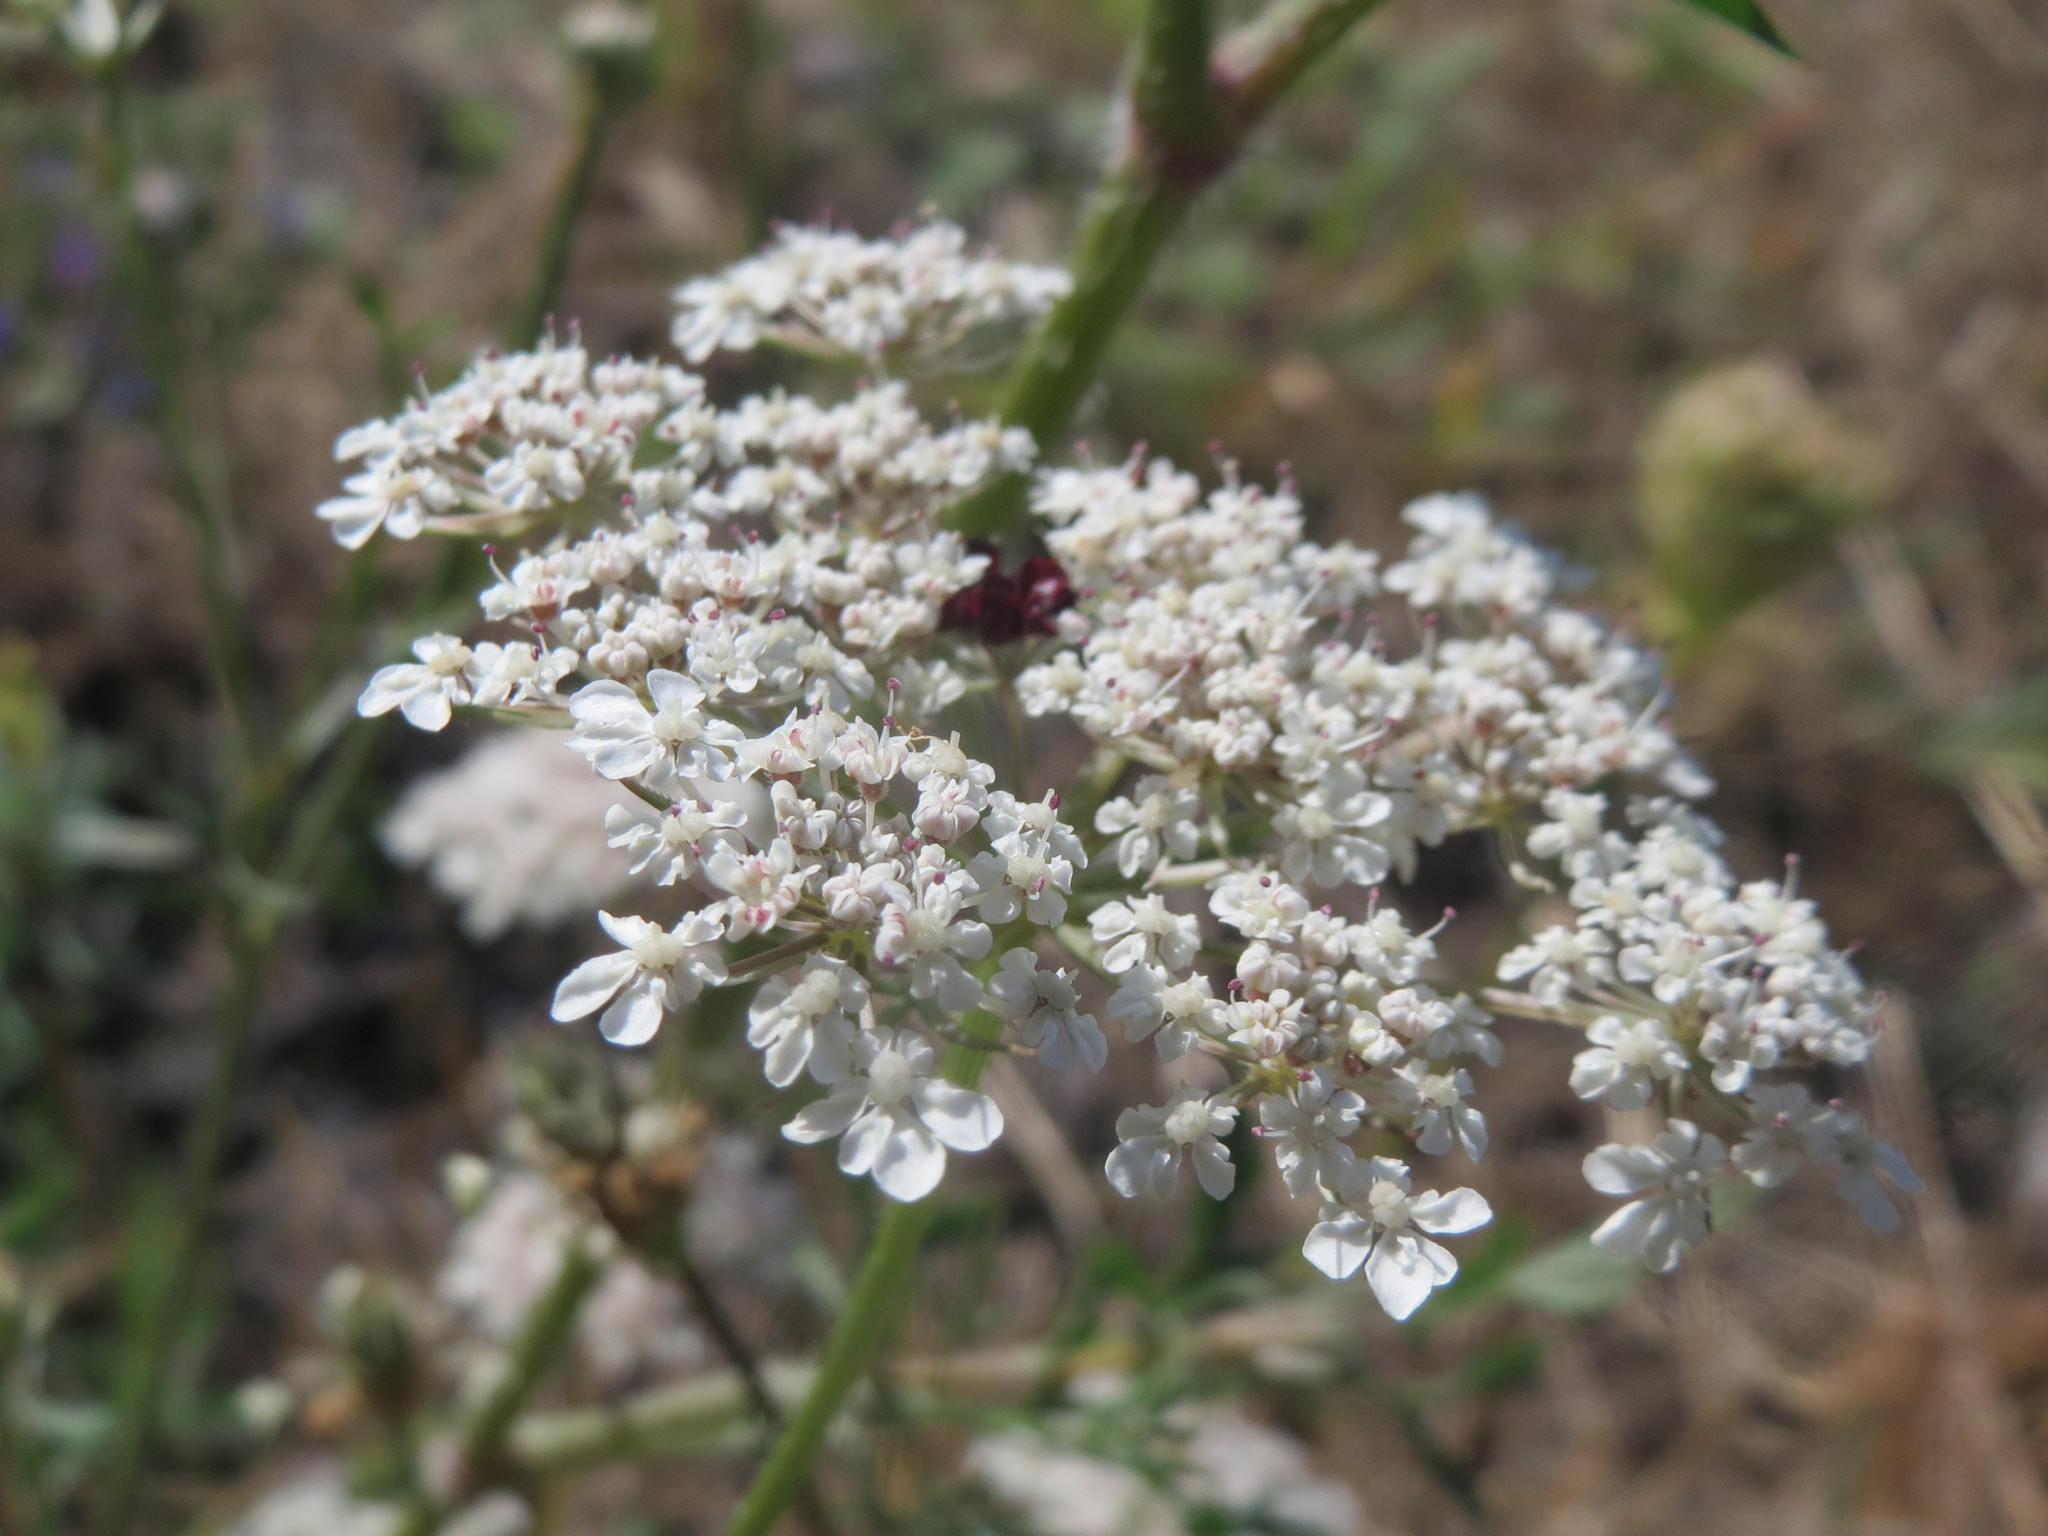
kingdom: Plantae
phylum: Tracheophyta
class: Magnoliopsida
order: Apiales
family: Apiaceae
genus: Daucus
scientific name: Daucus carota
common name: Wild carrot
